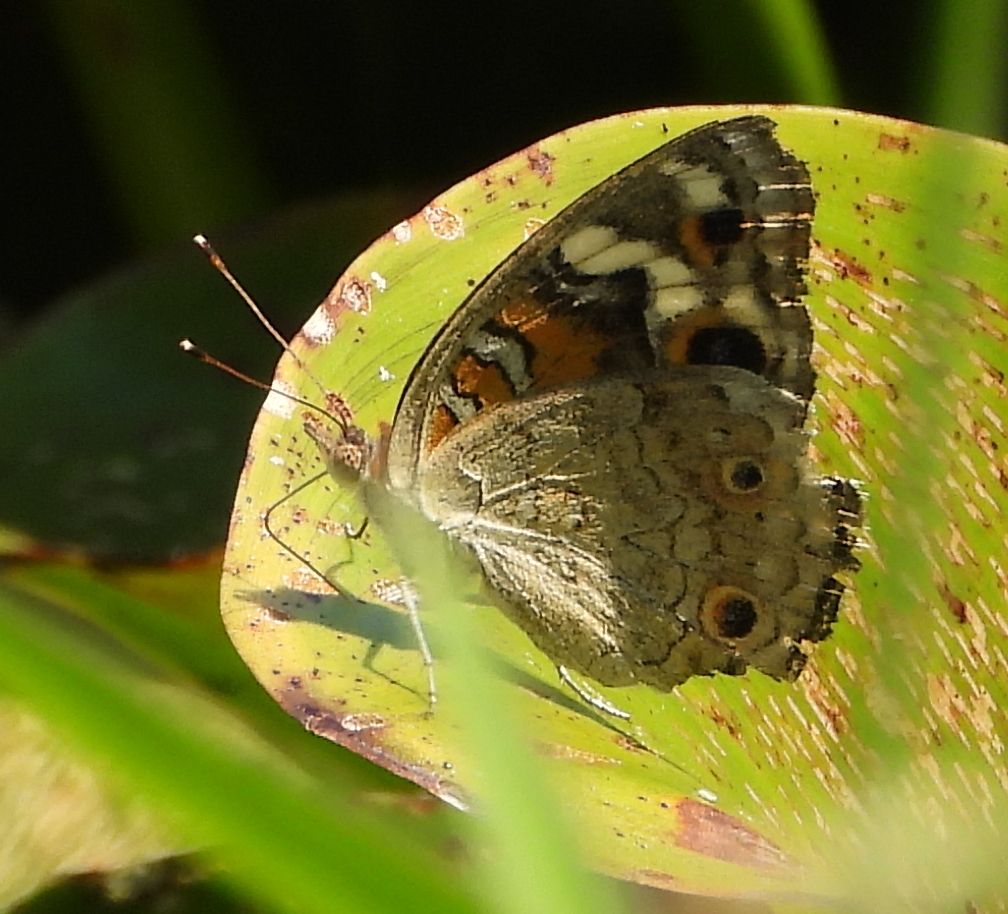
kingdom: Animalia
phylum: Arthropoda
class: Insecta
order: Lepidoptera
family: Nymphalidae
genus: Junonia
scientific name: Junonia orithya
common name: Blue pansy
